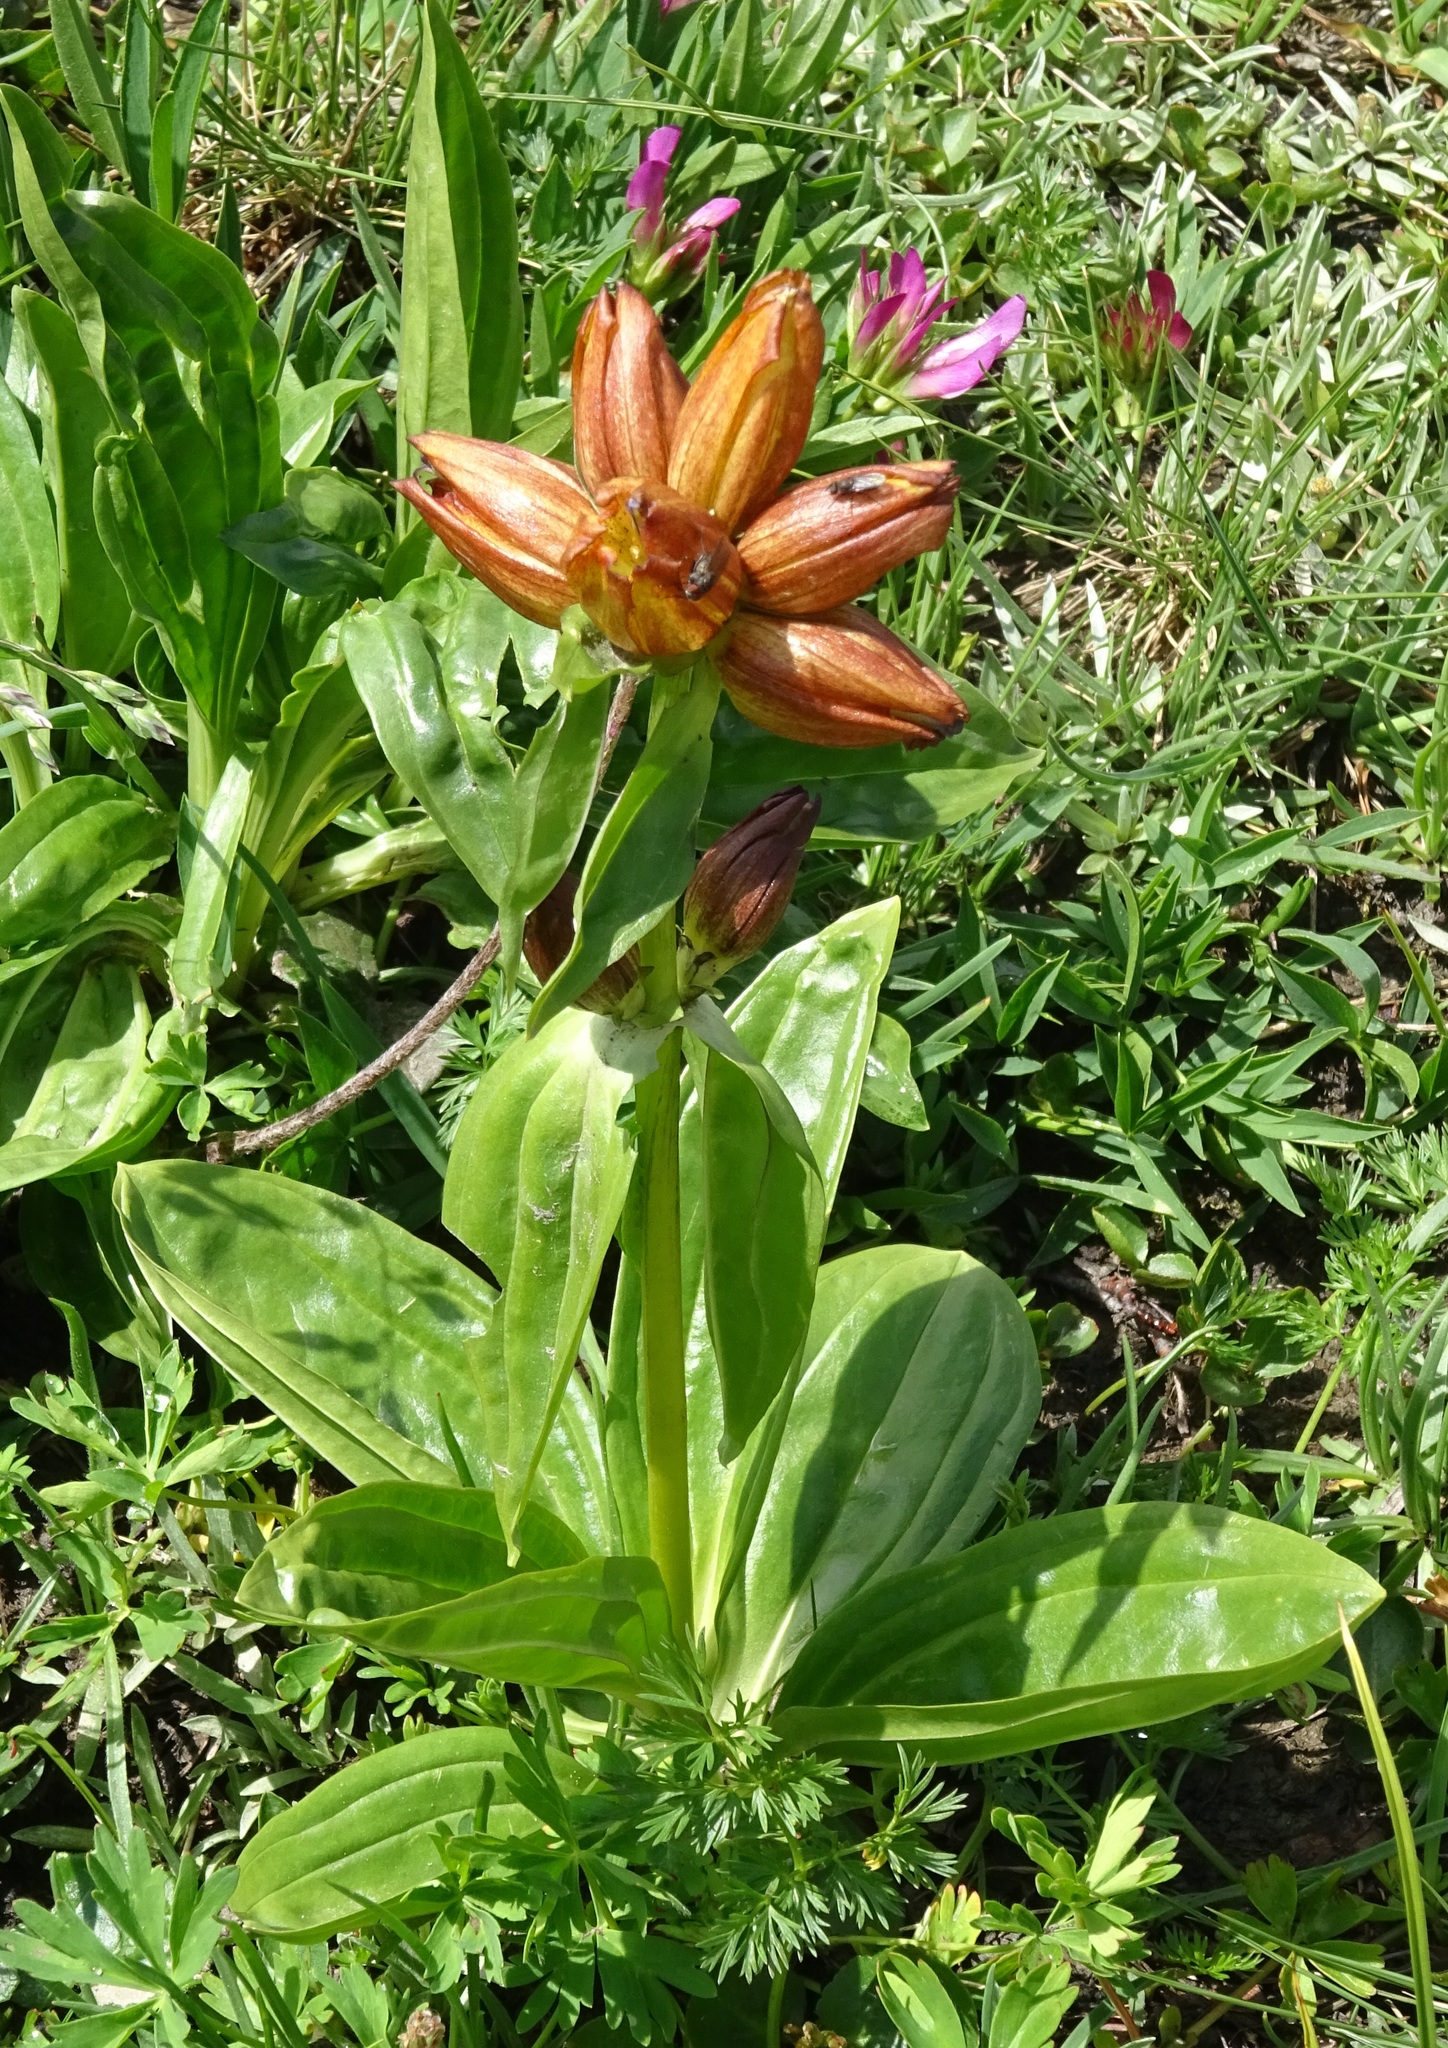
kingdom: Plantae
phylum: Tracheophyta
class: Magnoliopsida
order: Gentianales
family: Gentianaceae
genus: Gentiana
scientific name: Gentiana gaudiniana
